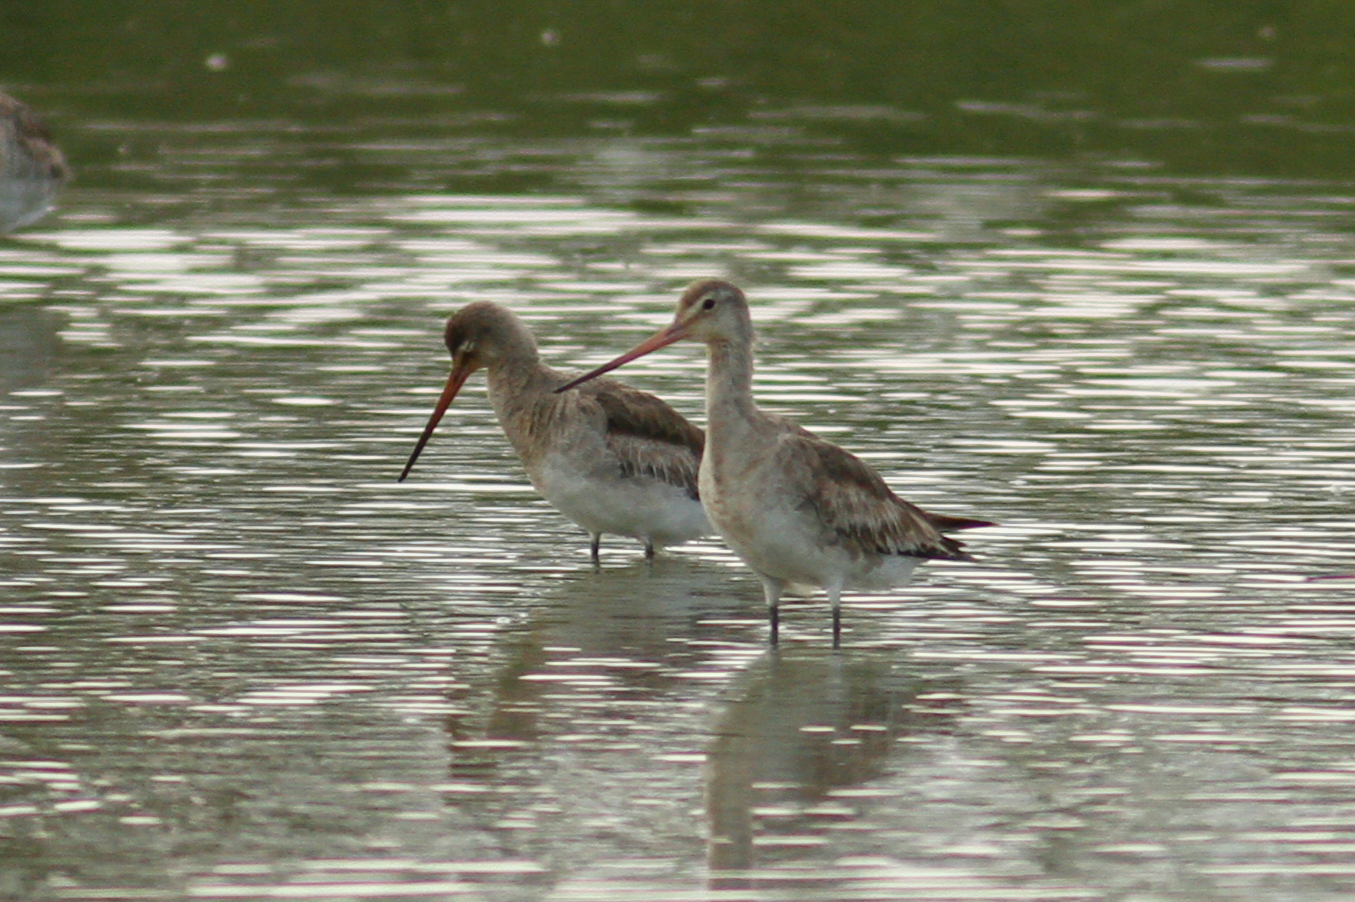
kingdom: Animalia
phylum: Chordata
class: Aves
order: Charadriiformes
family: Scolopacidae
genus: Limosa
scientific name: Limosa limosa
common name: Black-tailed godwit
